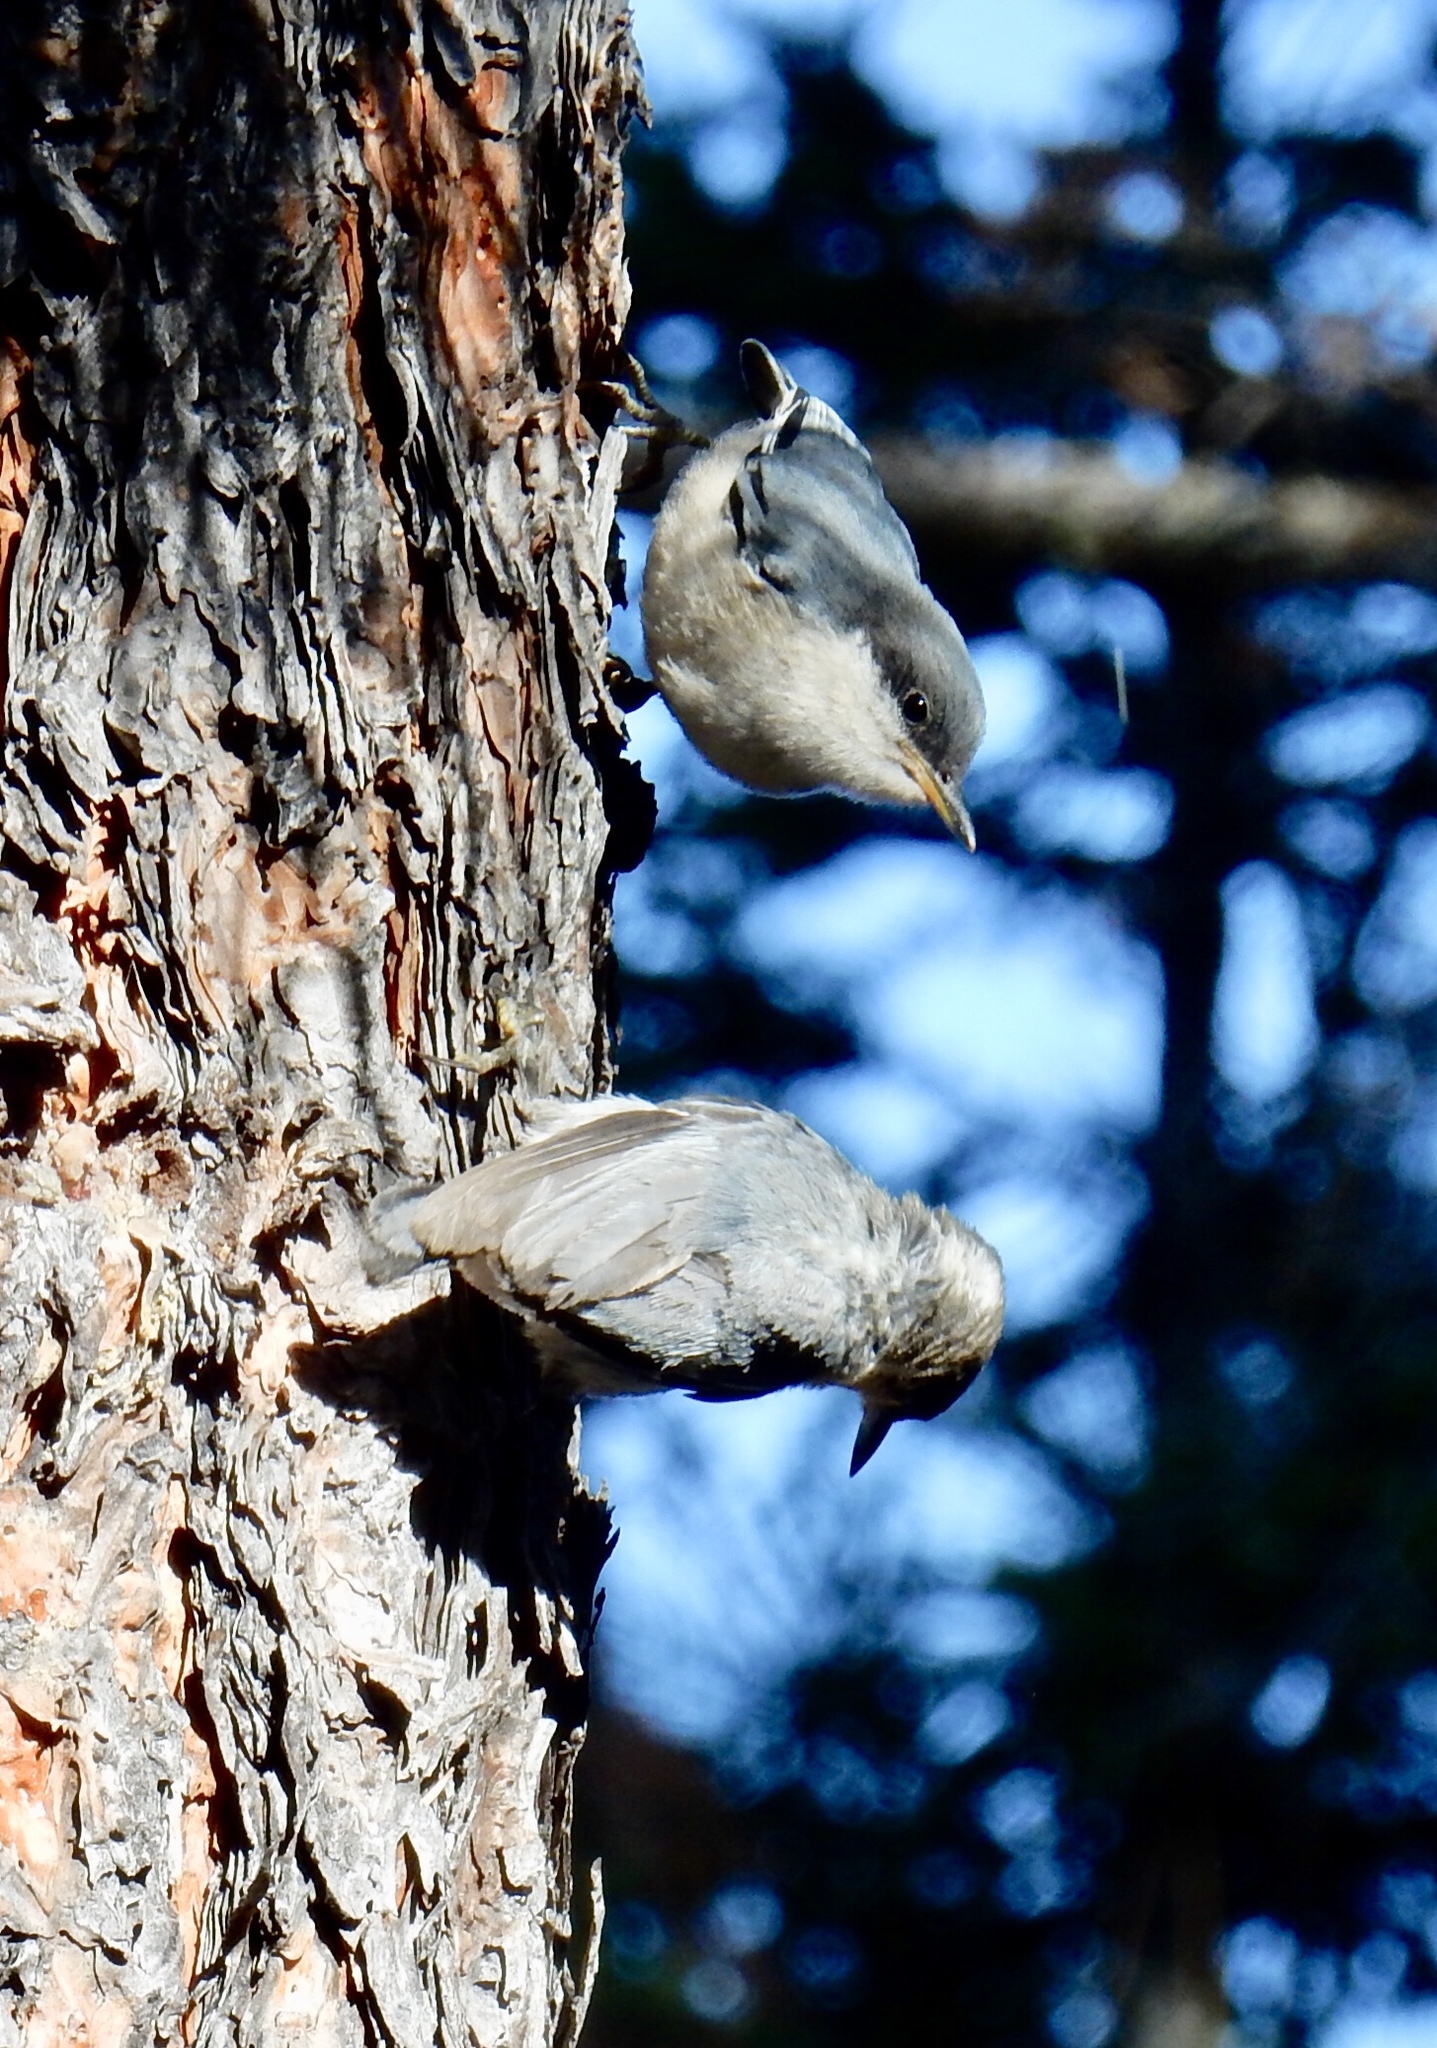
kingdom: Animalia
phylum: Chordata
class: Aves
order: Passeriformes
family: Sittidae
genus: Sitta
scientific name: Sitta pygmaea
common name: Pygmy nuthatch
